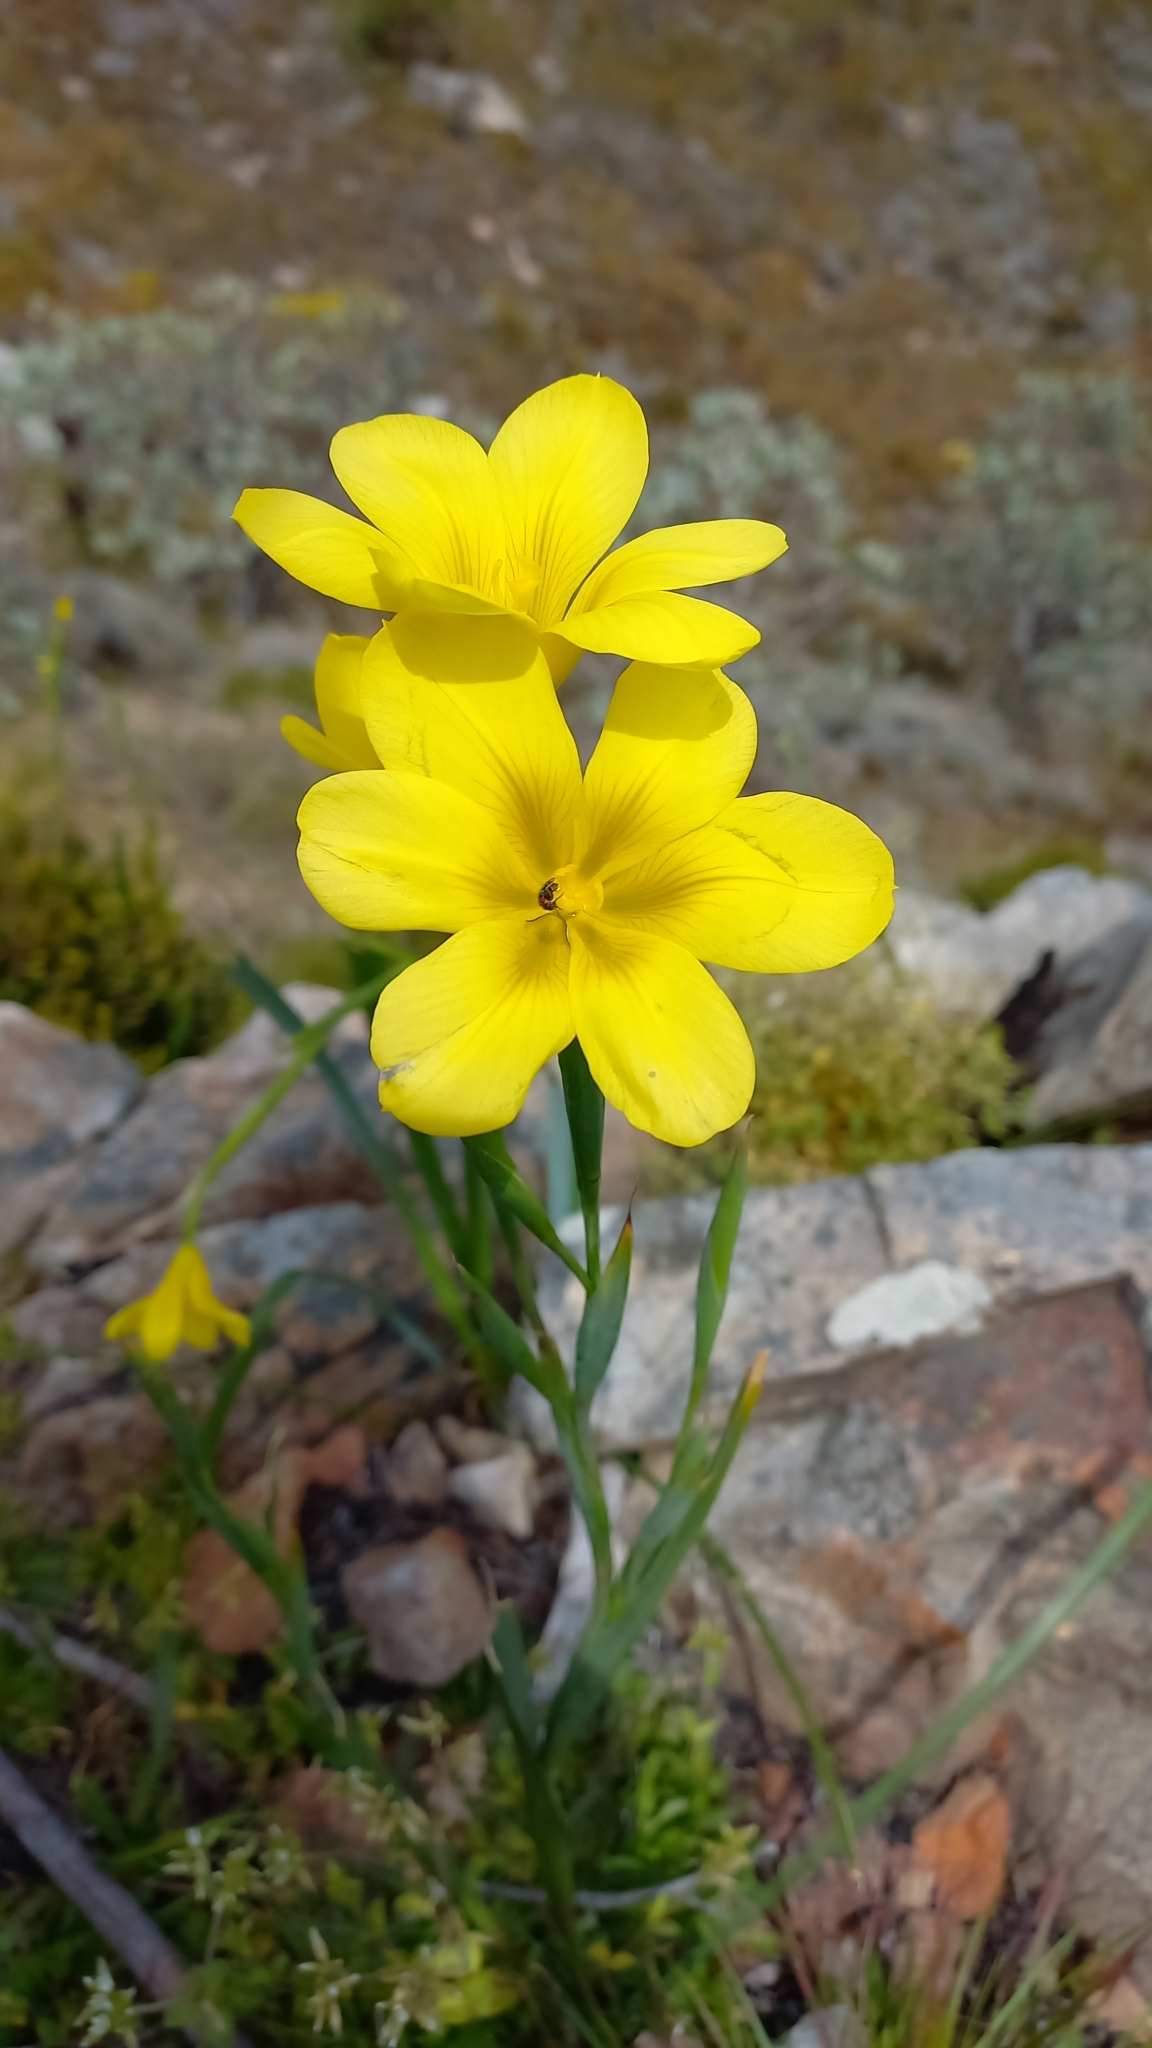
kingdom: Plantae
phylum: Tracheophyta
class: Liliopsida
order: Asparagales
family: Iridaceae
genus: Moraea
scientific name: Moraea ochroleuca
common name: Red tulp
